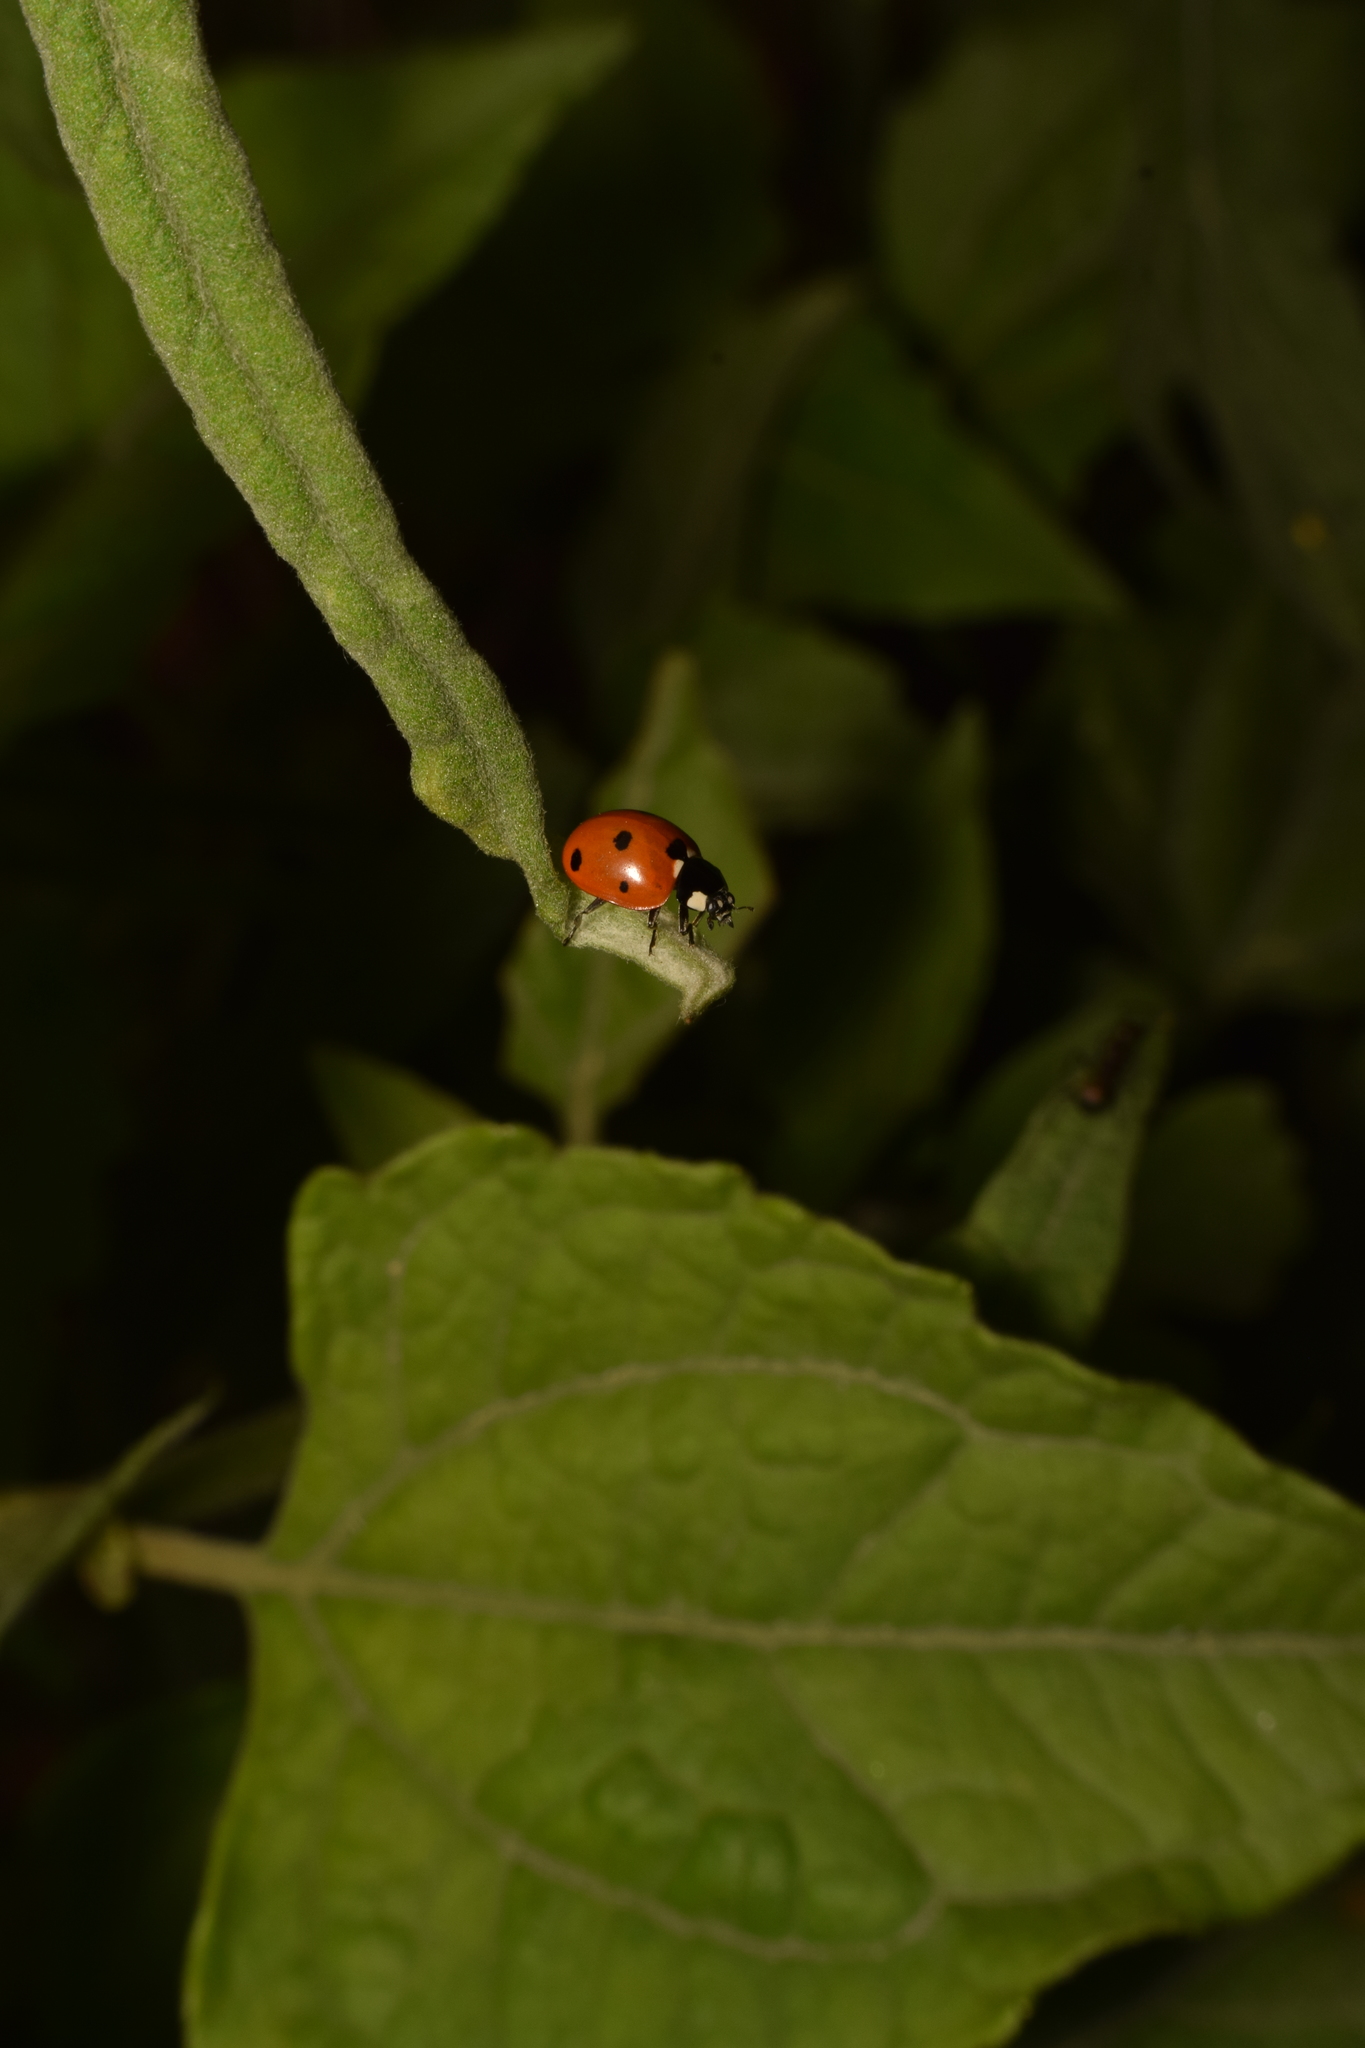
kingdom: Animalia
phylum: Arthropoda
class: Insecta
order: Coleoptera
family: Coccinellidae
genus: Coccinella
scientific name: Coccinella septempunctata
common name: Sevenspotted lady beetle
